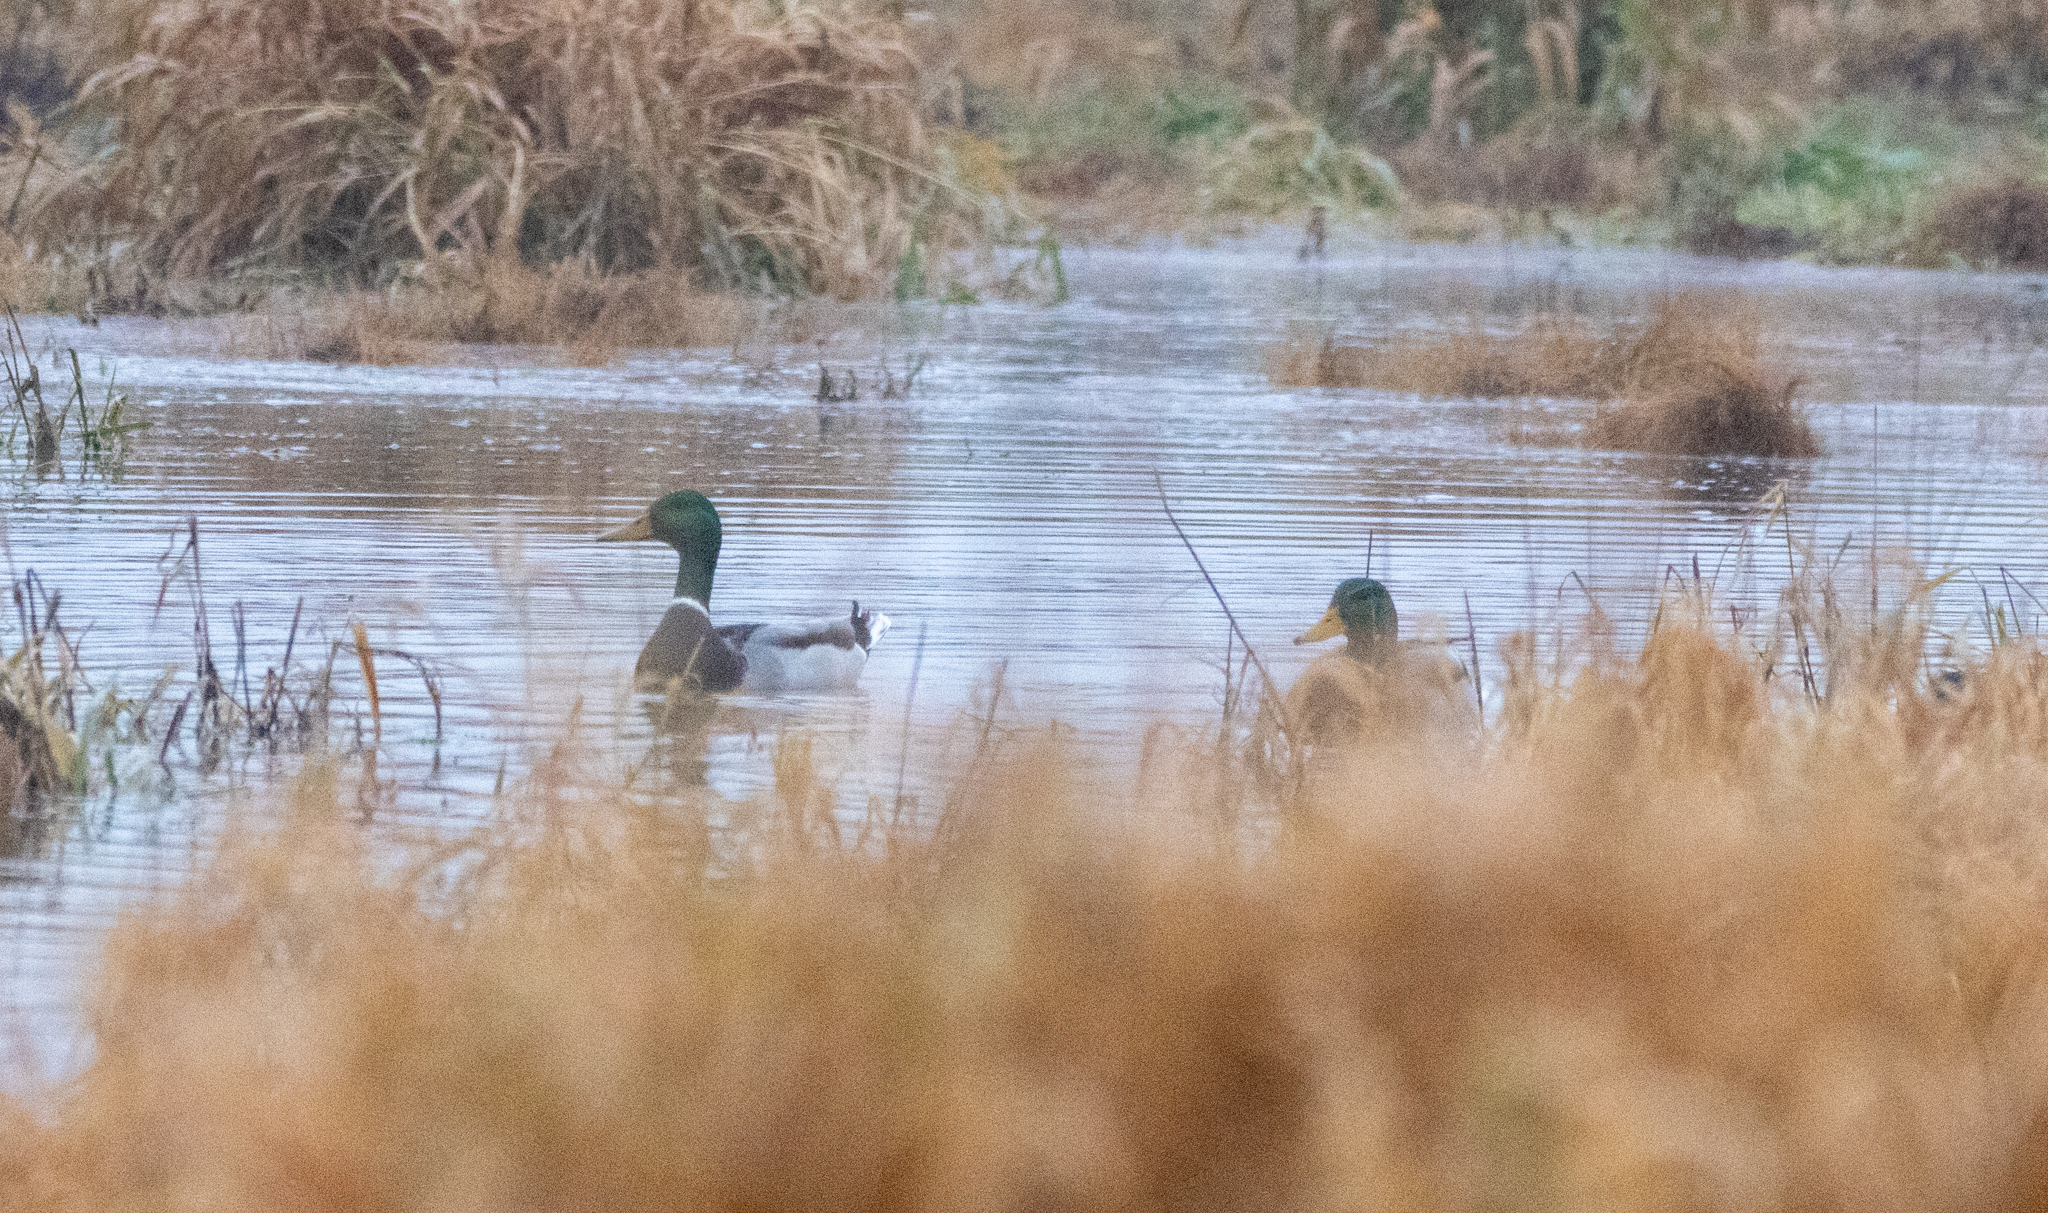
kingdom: Animalia
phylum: Chordata
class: Aves
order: Anseriformes
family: Anatidae
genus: Anas
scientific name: Anas platyrhynchos
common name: Mallard
